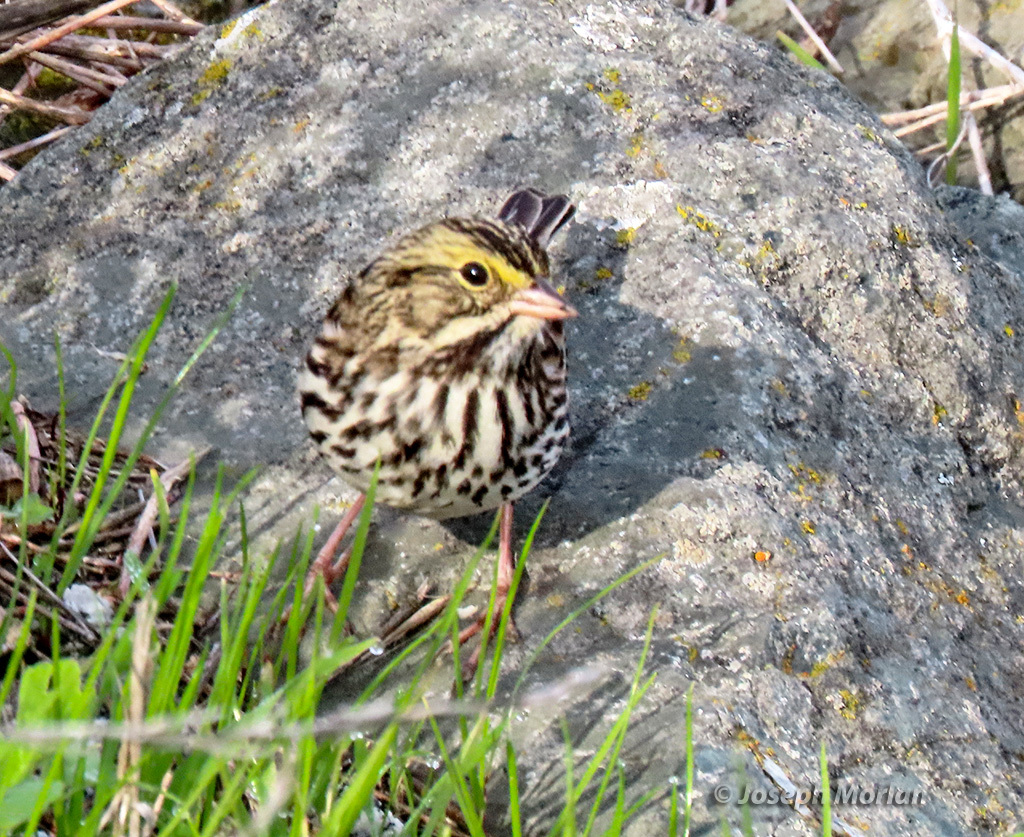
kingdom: Animalia
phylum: Chordata
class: Aves
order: Passeriformes
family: Passerellidae
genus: Passerculus
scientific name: Passerculus sandwichensis
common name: Savannah sparrow
